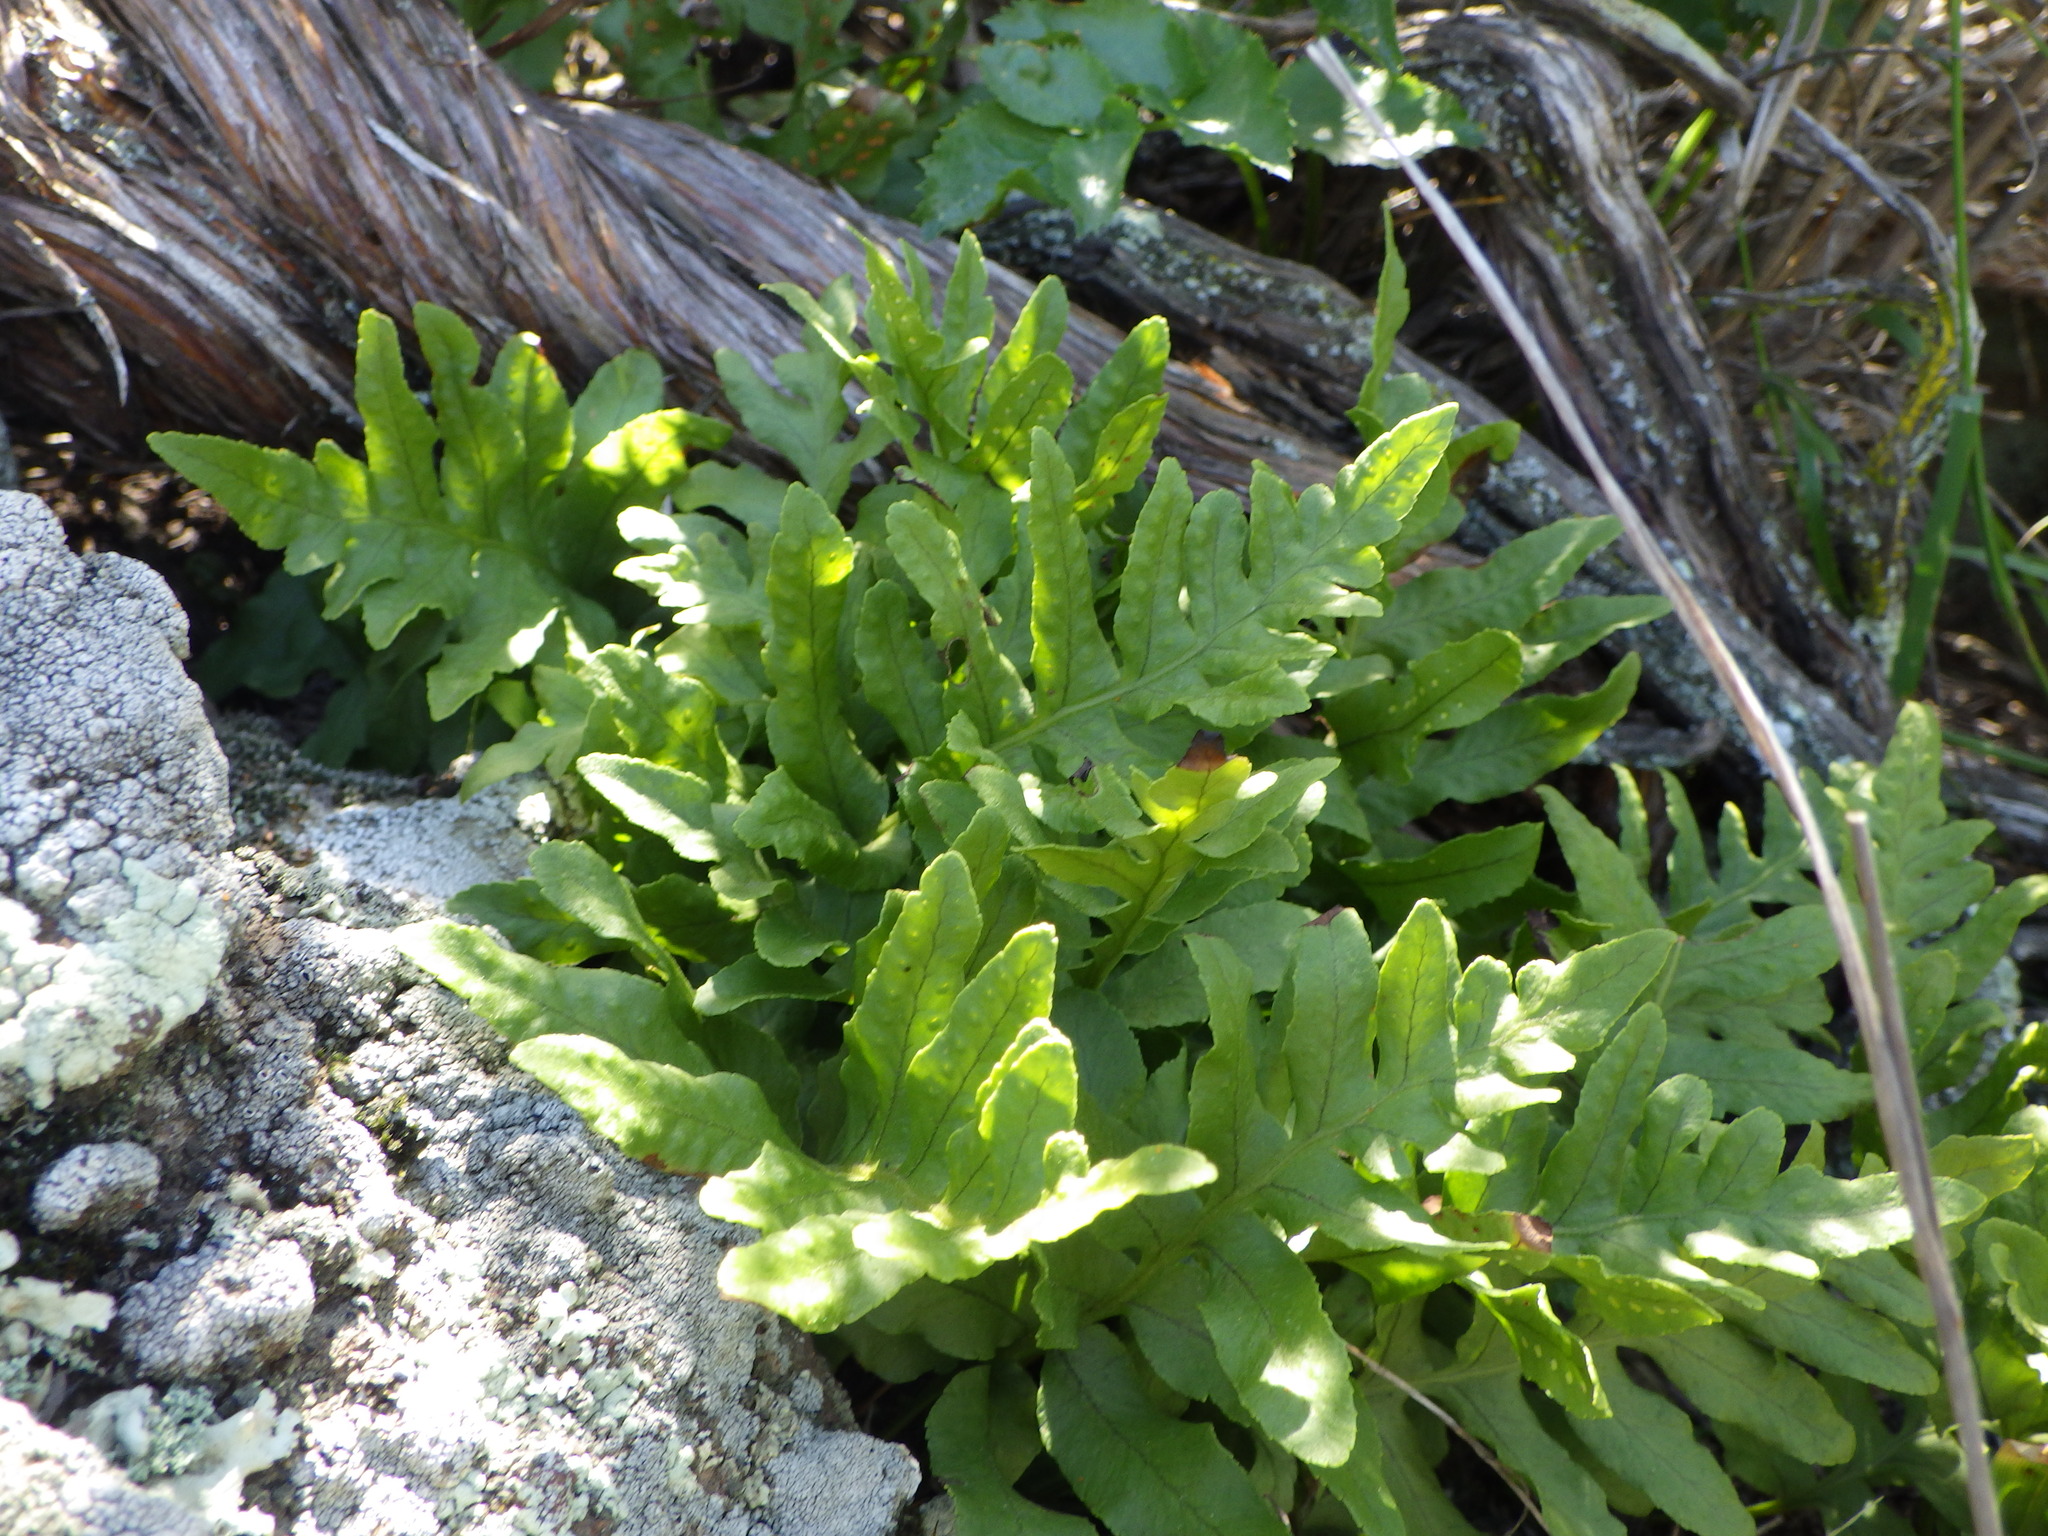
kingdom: Plantae
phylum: Tracheophyta
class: Polypodiopsida
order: Polypodiales
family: Polypodiaceae
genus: Polypodium
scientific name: Polypodium californicum
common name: California polypody
